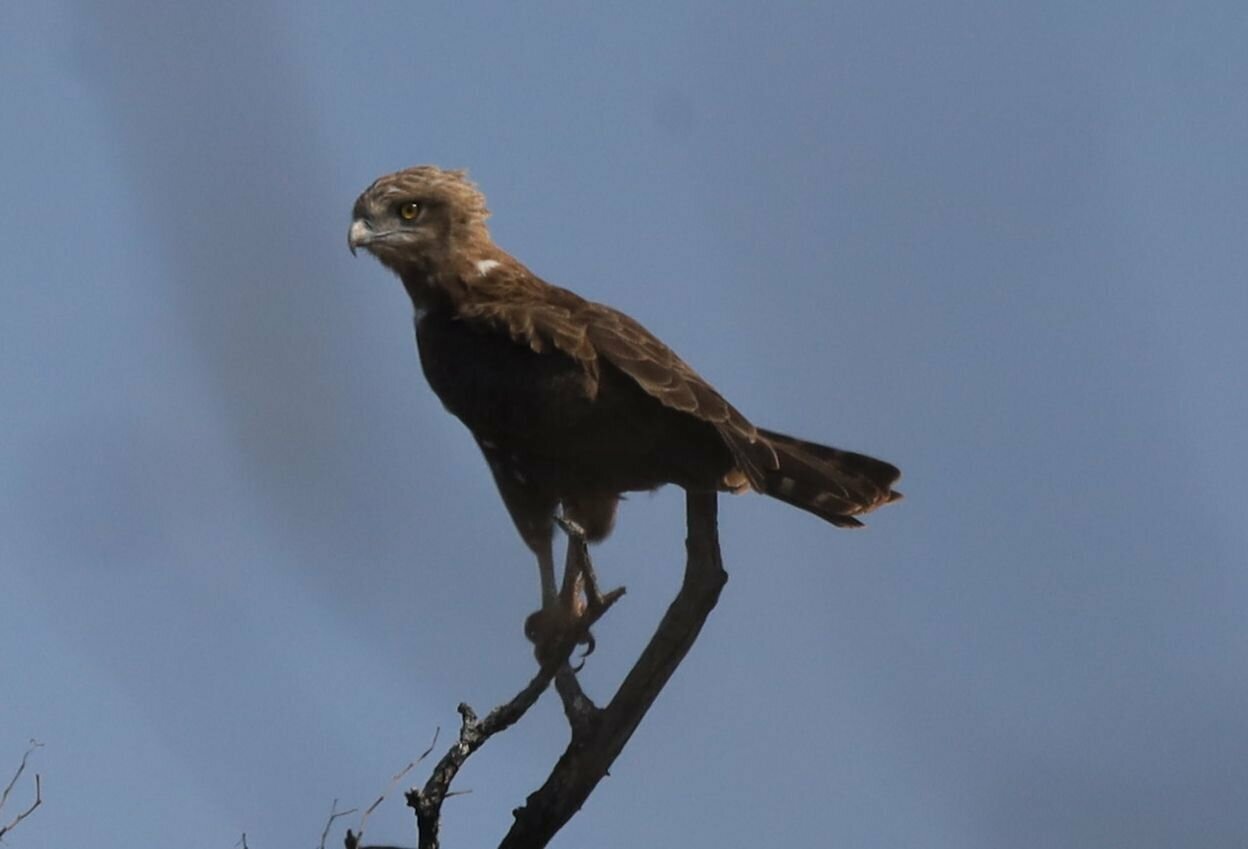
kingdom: Animalia
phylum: Chordata
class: Aves
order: Accipitriformes
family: Accipitridae
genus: Circaetus
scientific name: Circaetus cinereus
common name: Brown snake eagle
